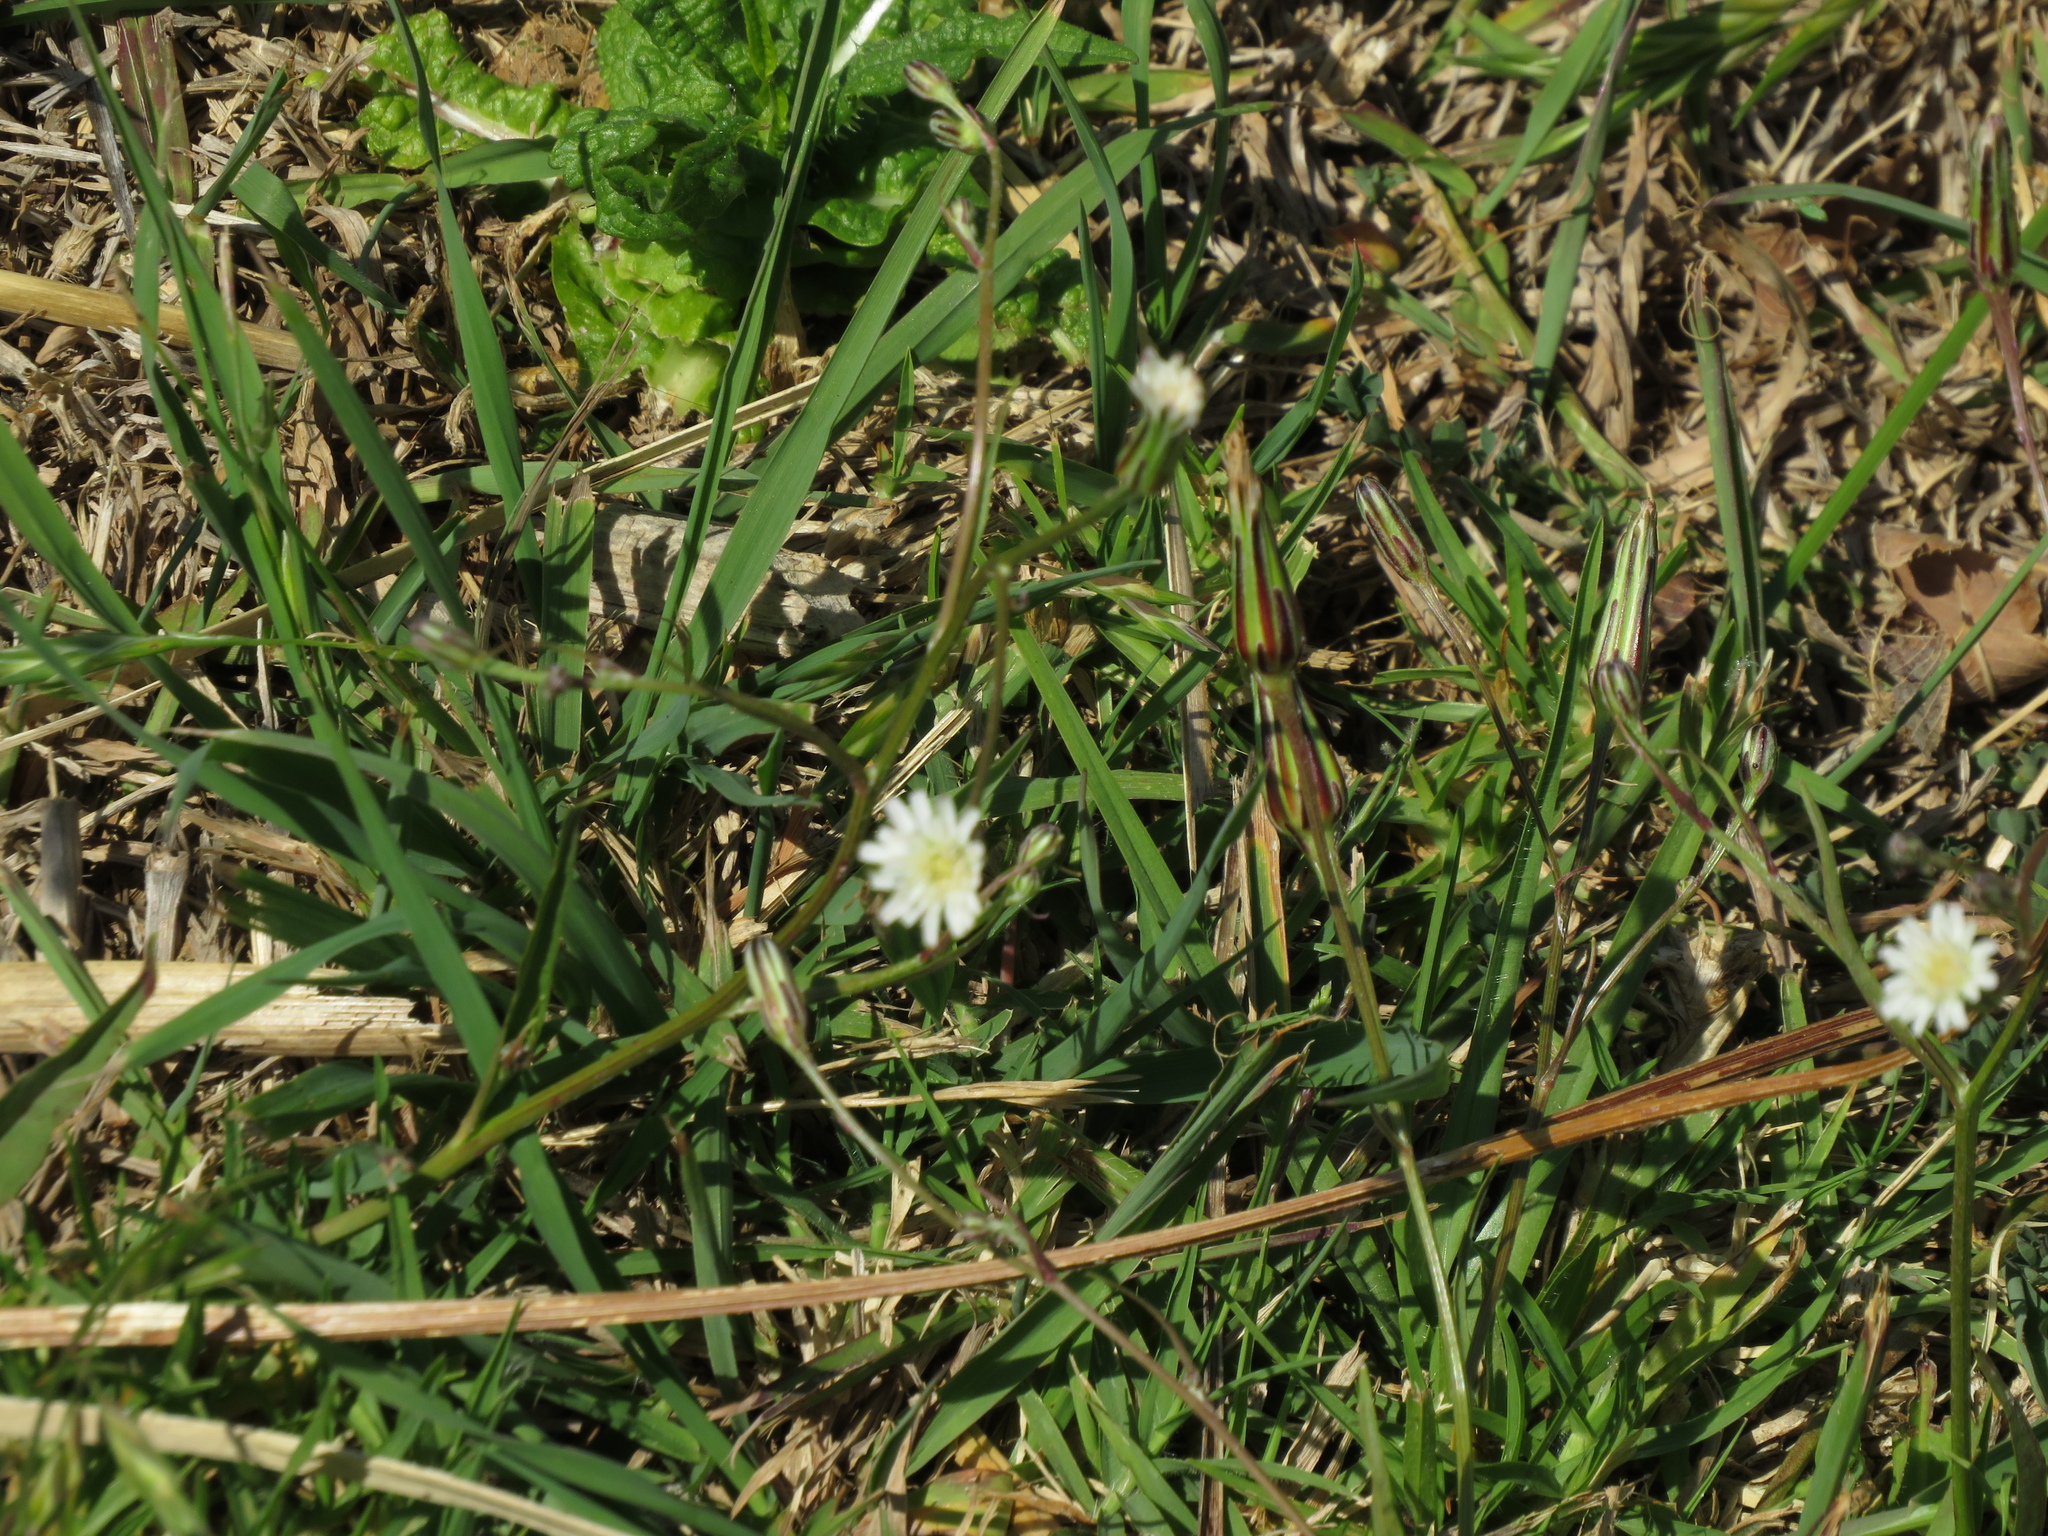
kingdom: Plantae
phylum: Tracheophyta
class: Magnoliopsida
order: Asterales
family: Asteraceae
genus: Hypochaeris
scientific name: Hypochaeris albiflora
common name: White flatweed
